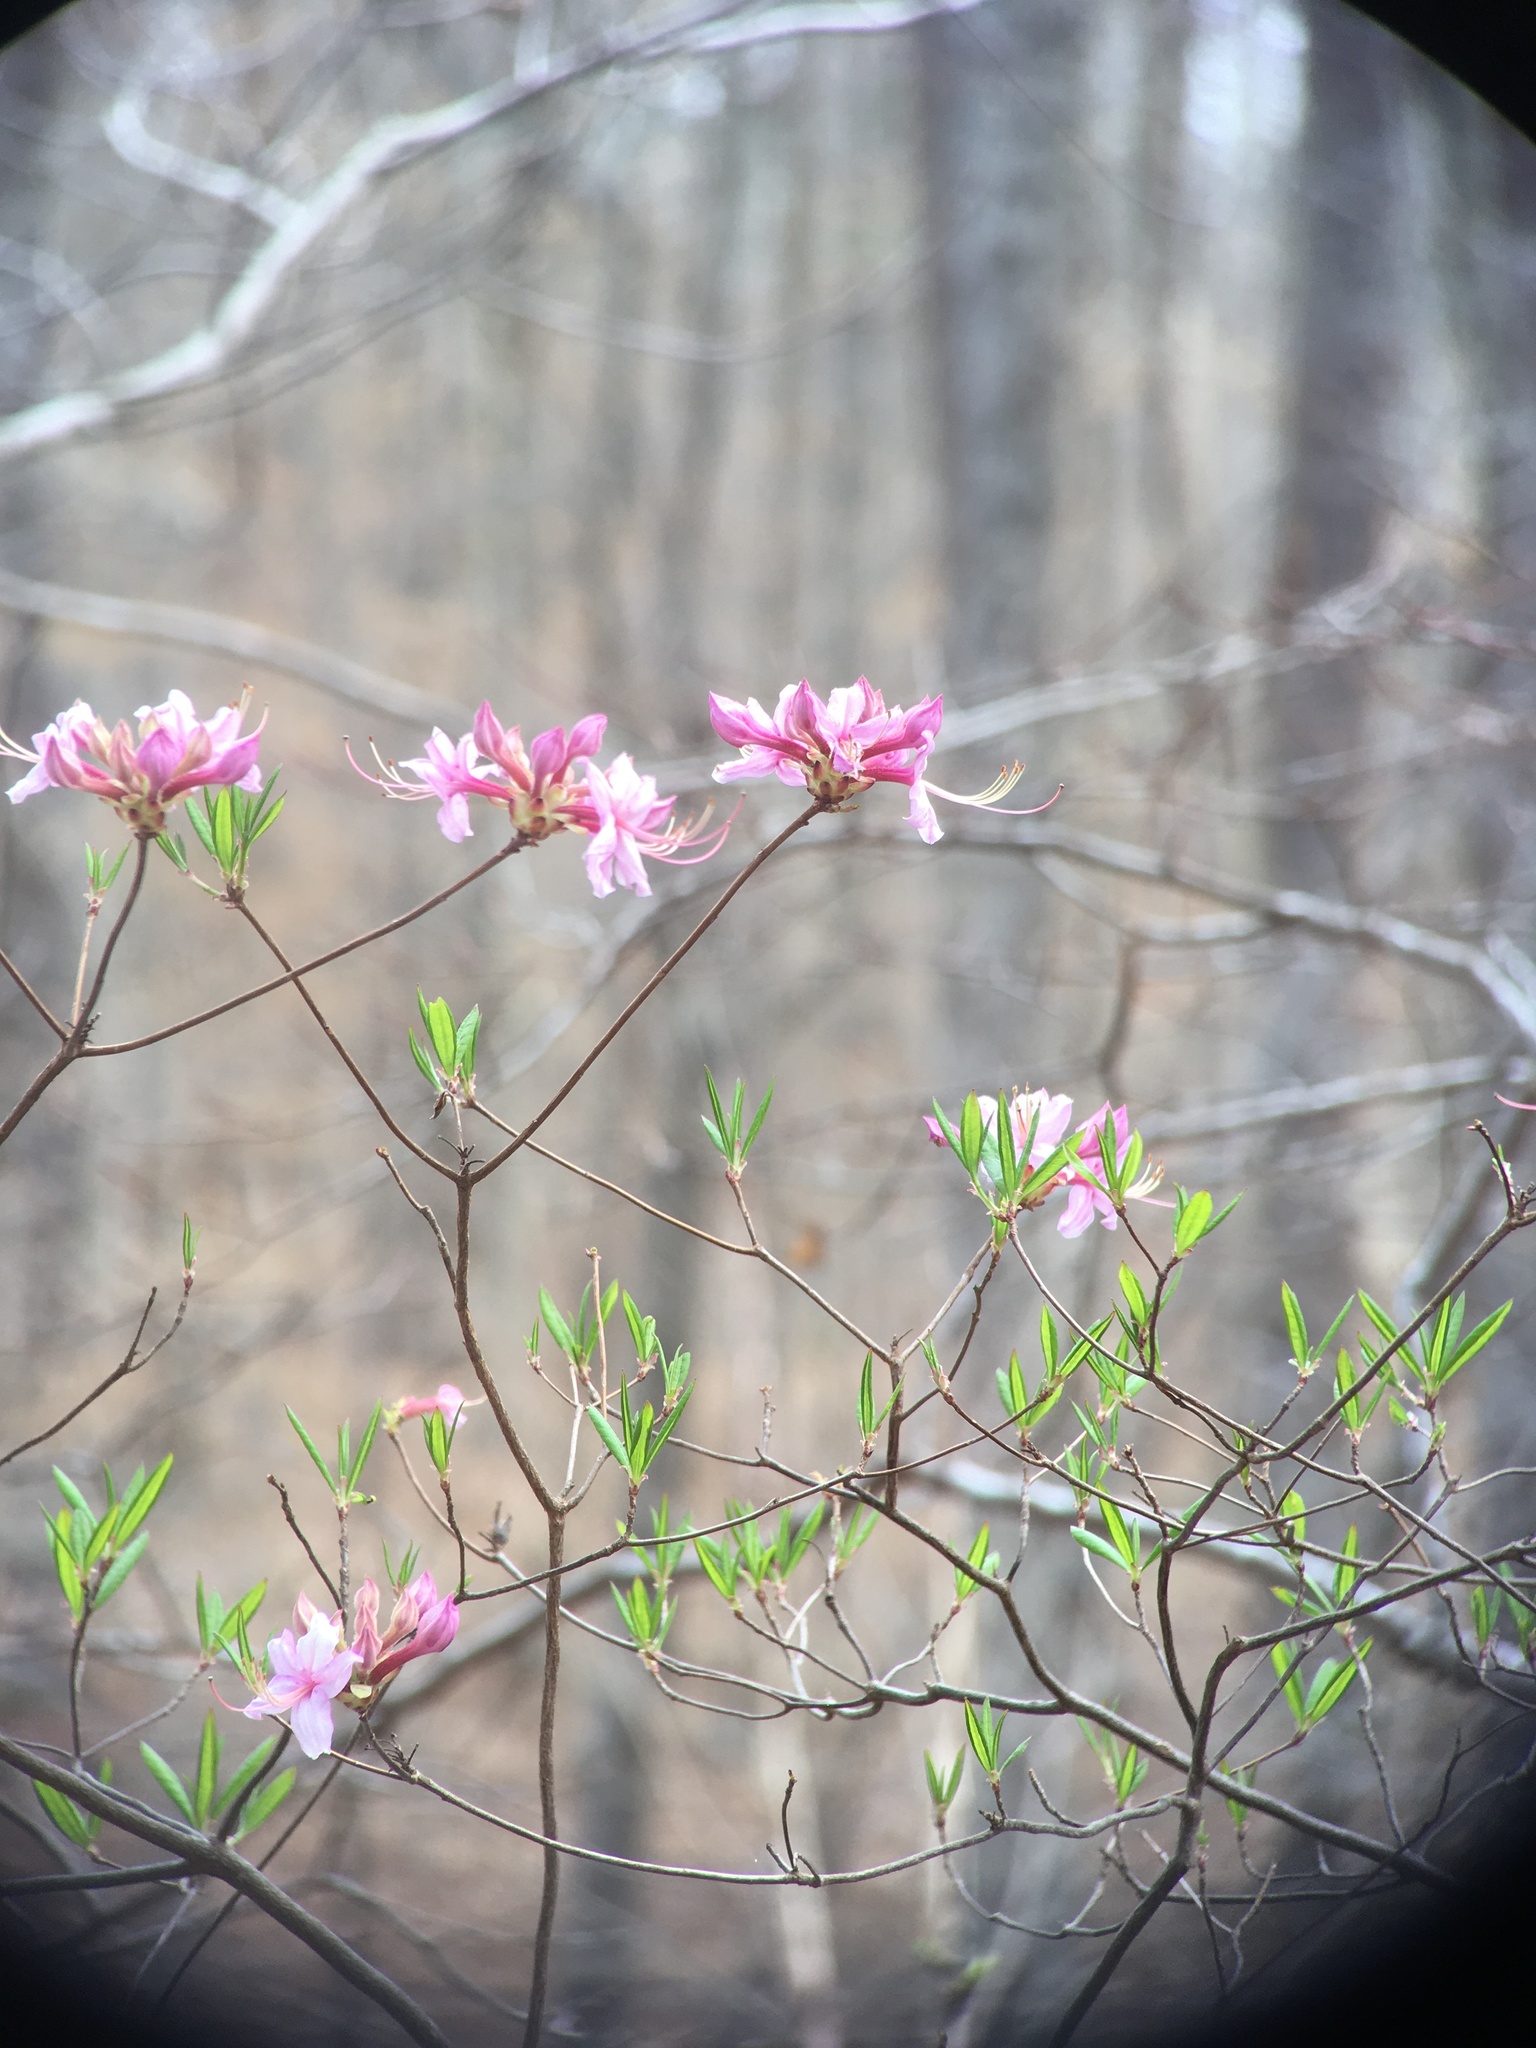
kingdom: Plantae
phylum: Tracheophyta
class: Magnoliopsida
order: Ericales
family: Ericaceae
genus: Rhododendron
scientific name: Rhododendron periclymenoides
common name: Election-pink
